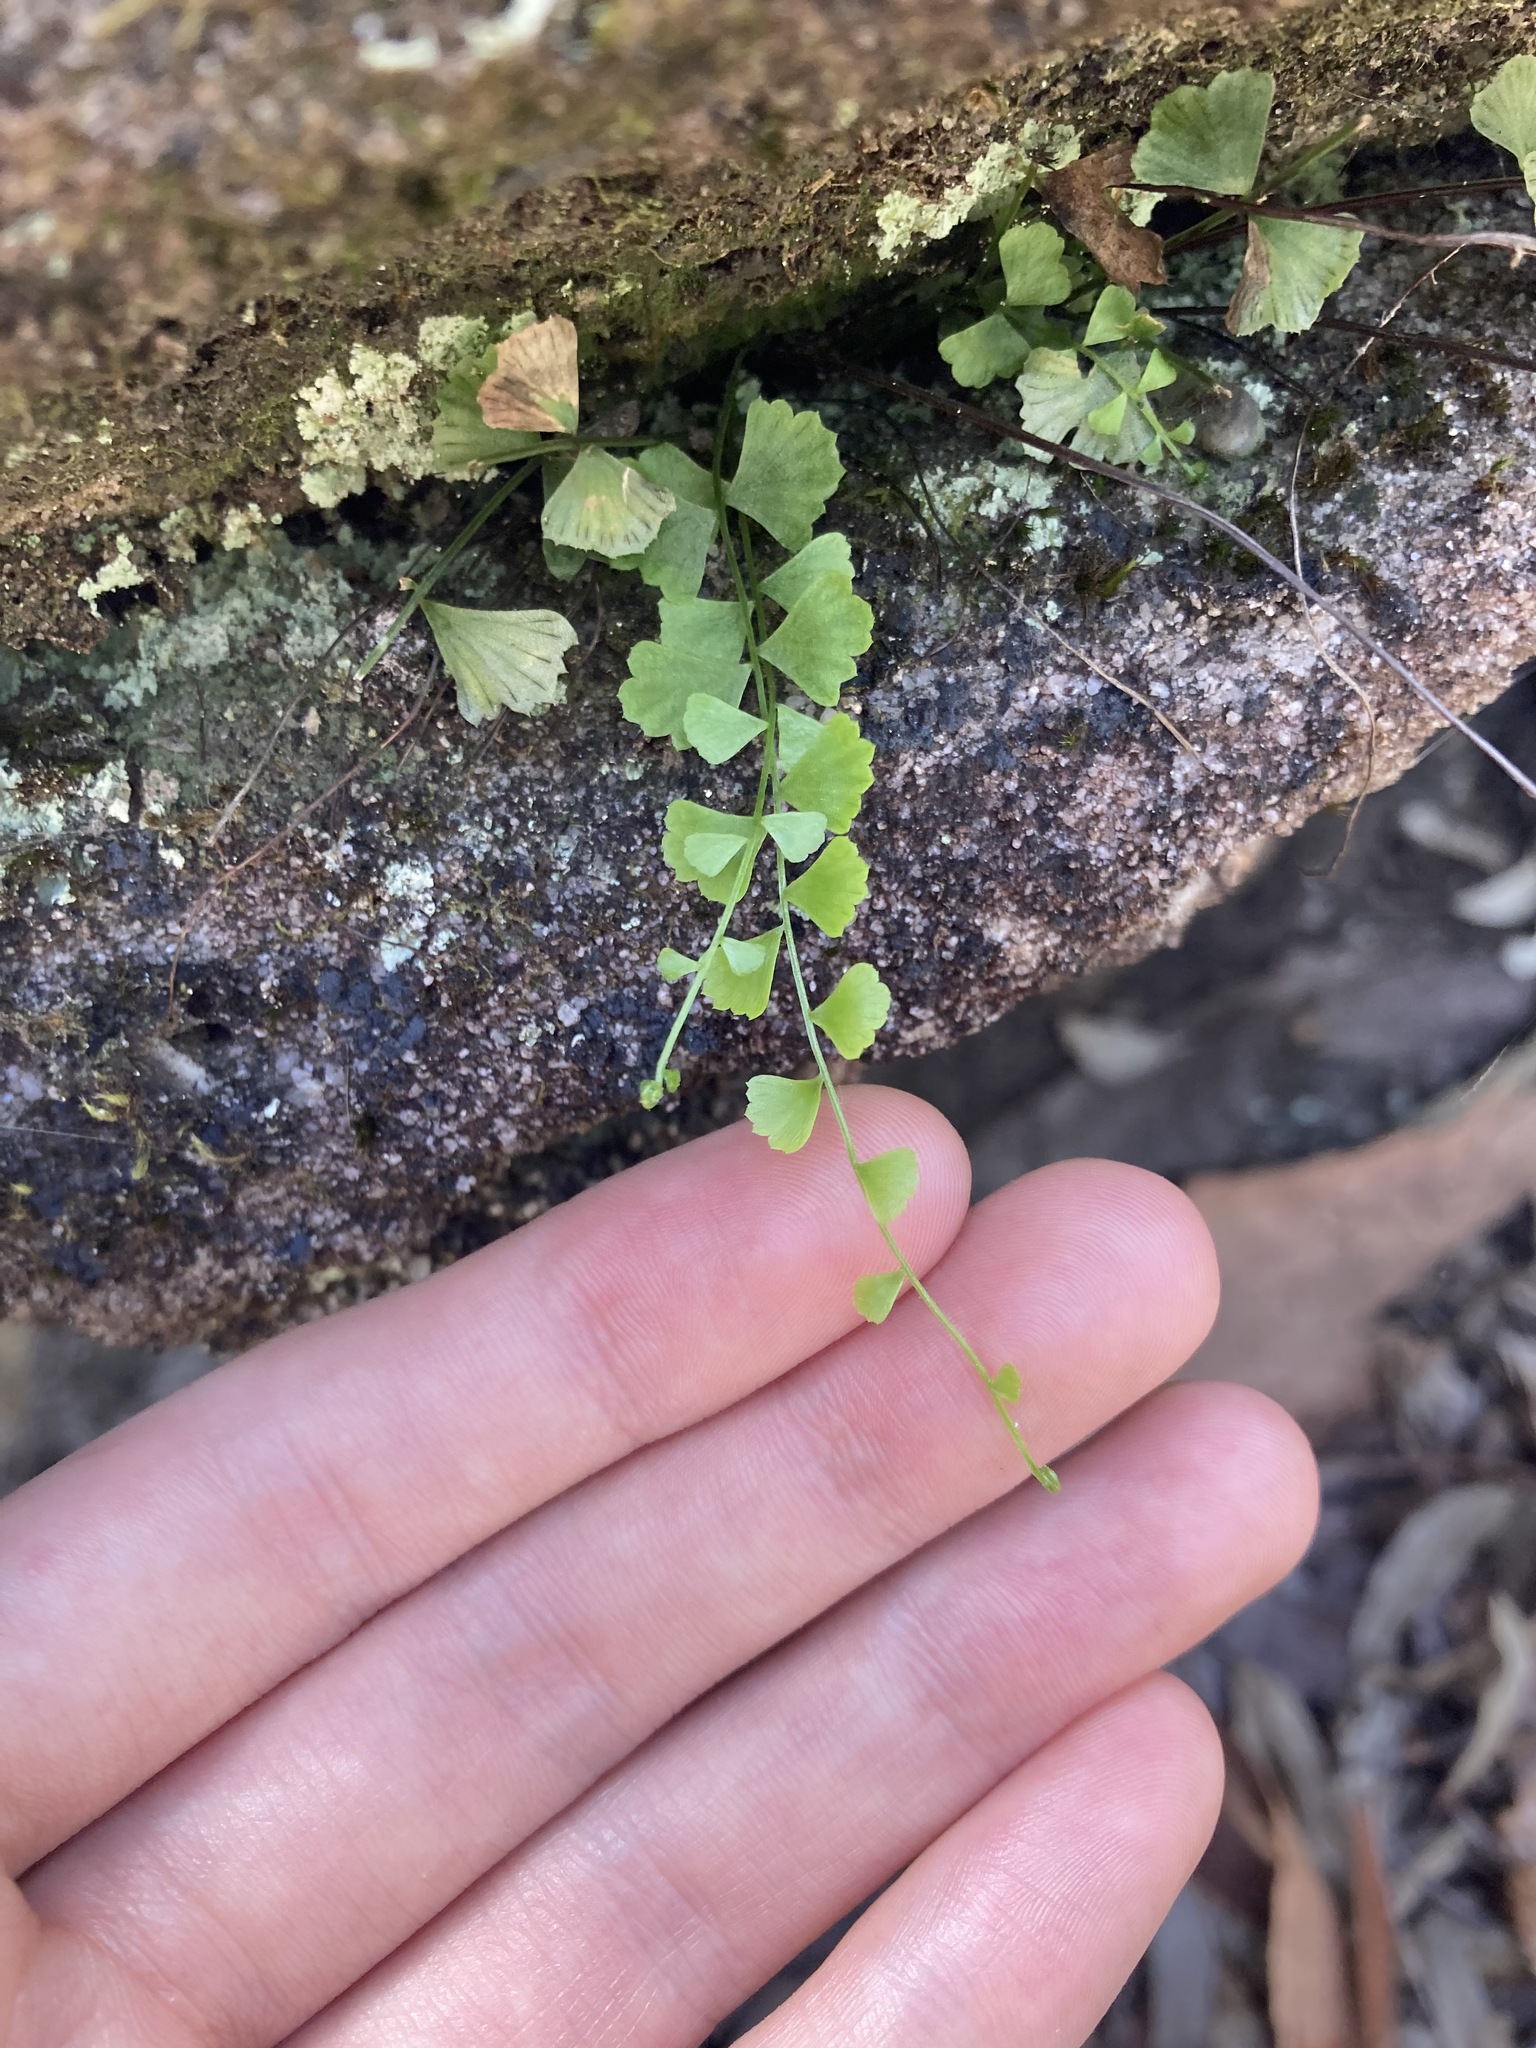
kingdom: Plantae
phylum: Tracheophyta
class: Polypodiopsida
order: Polypodiales
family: Aspleniaceae
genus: Asplenium
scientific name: Asplenium flabellifolium
